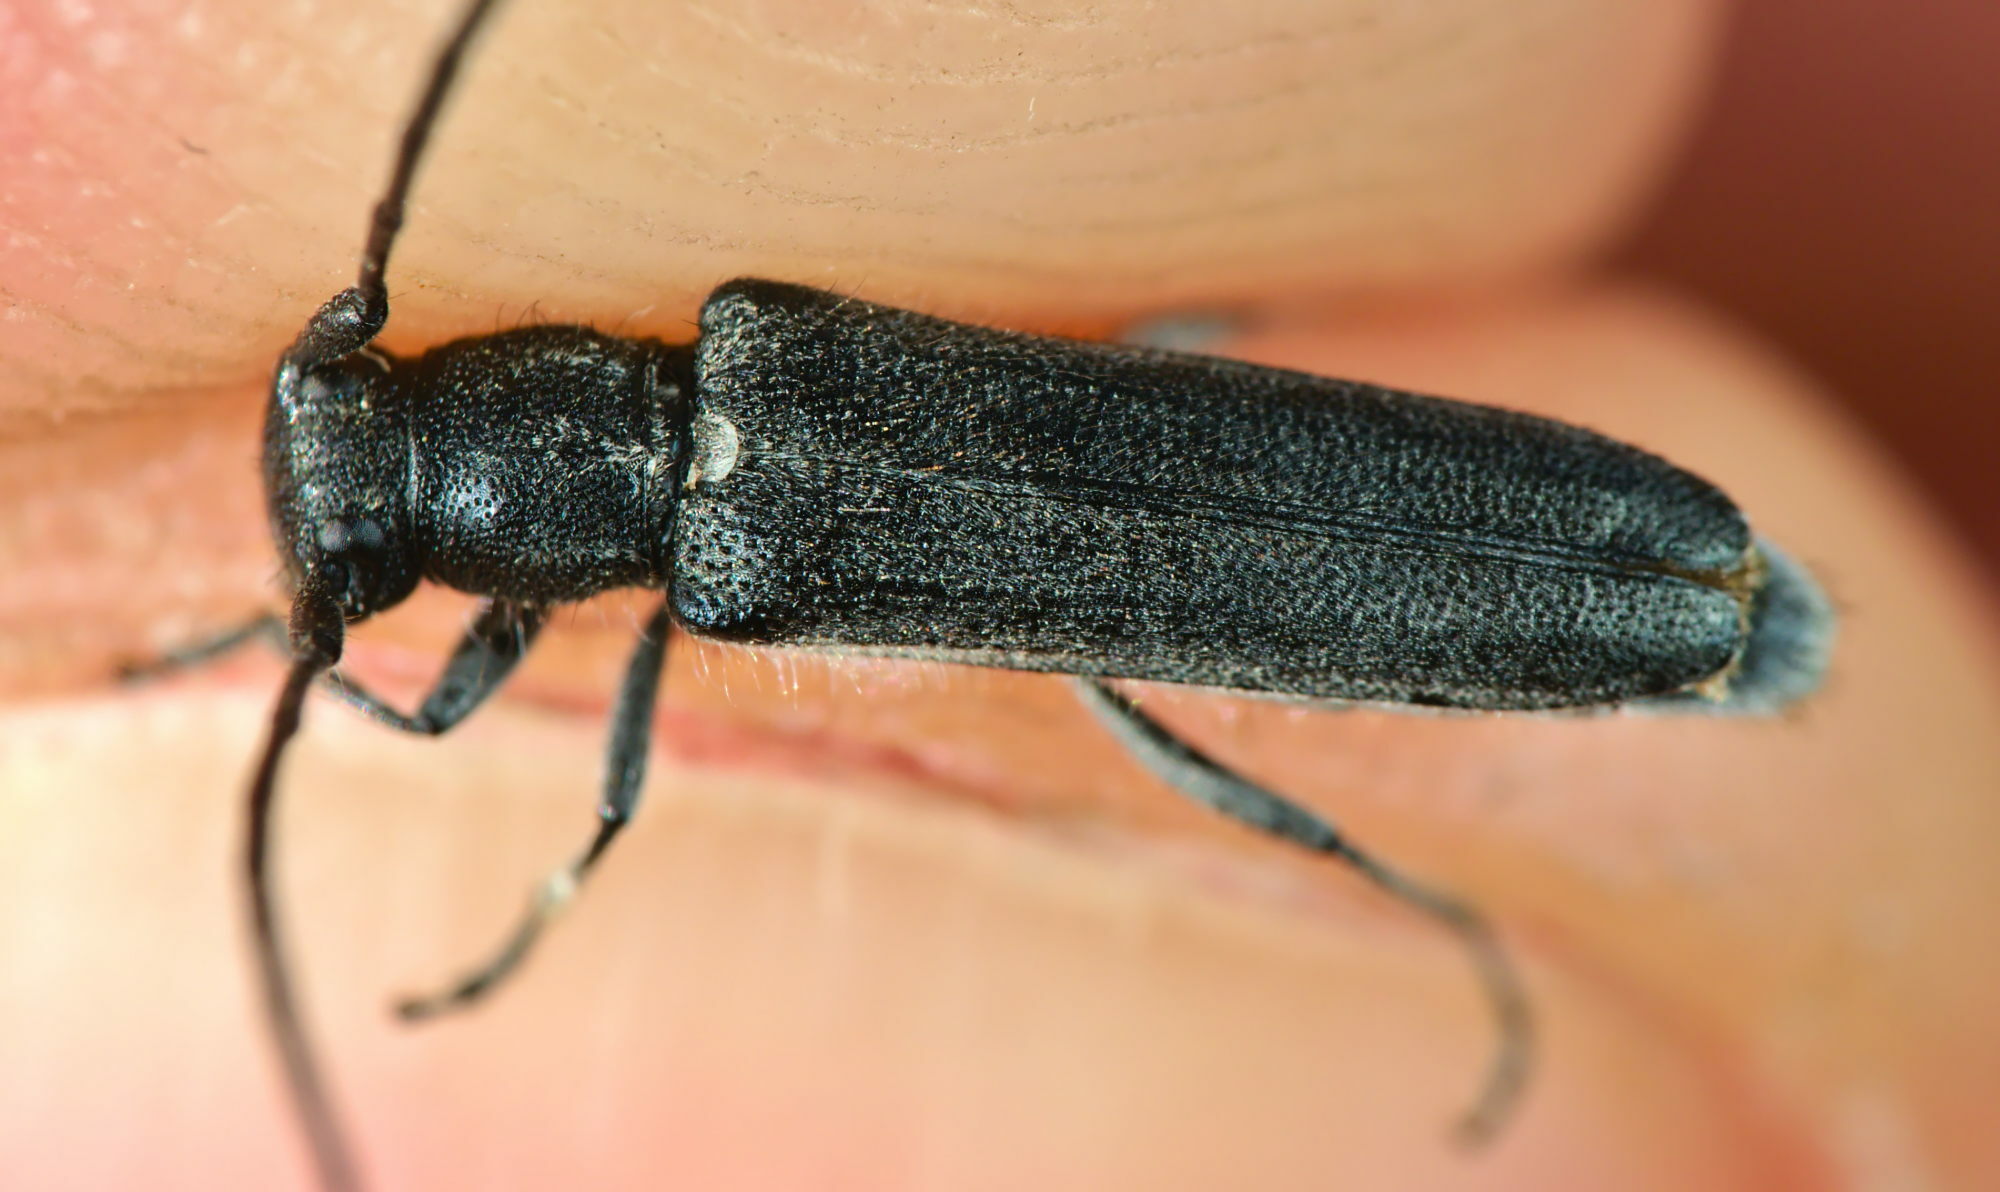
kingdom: Animalia
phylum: Arthropoda
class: Insecta
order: Coleoptera
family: Cerambycidae
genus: Phytoecia
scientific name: Phytoecia coerulescens
